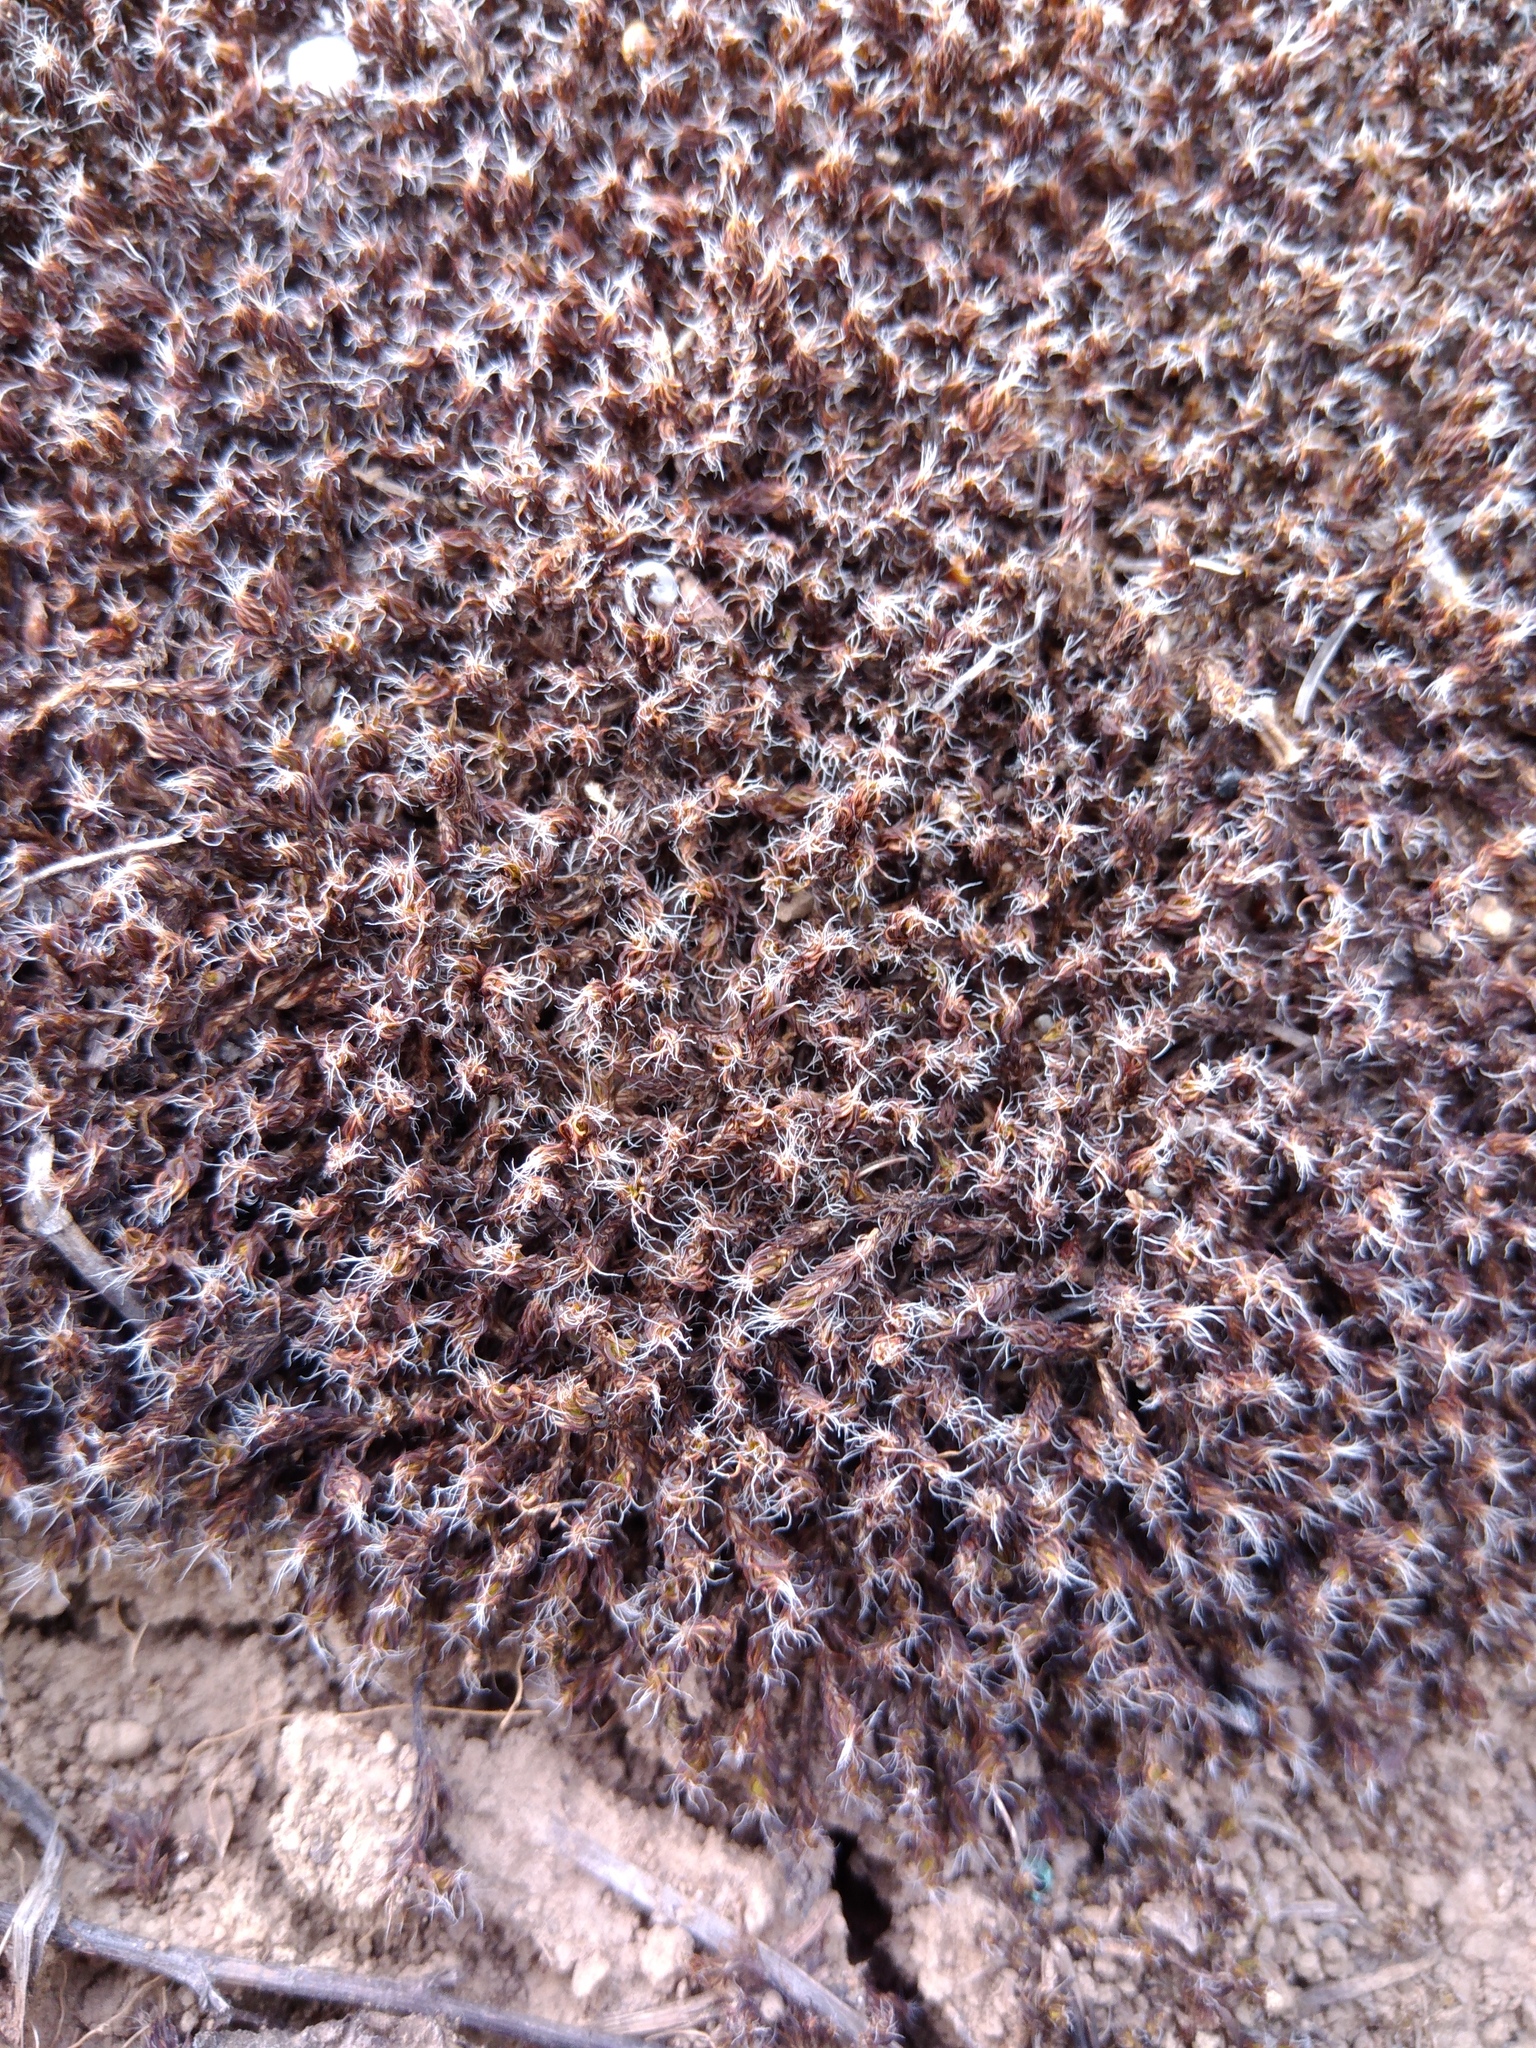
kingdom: Plantae
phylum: Bryophyta
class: Bryopsida
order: Pottiales
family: Pottiaceae
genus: Syntrichia
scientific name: Syntrichia ruralis
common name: Sidewalk screw moss
